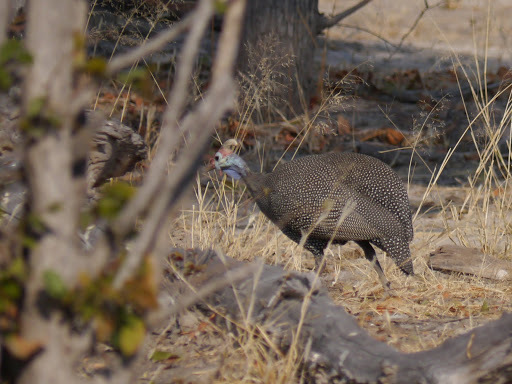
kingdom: Animalia
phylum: Chordata
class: Aves
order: Galliformes
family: Numididae
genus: Numida
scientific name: Numida meleagris
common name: Helmeted guineafowl
